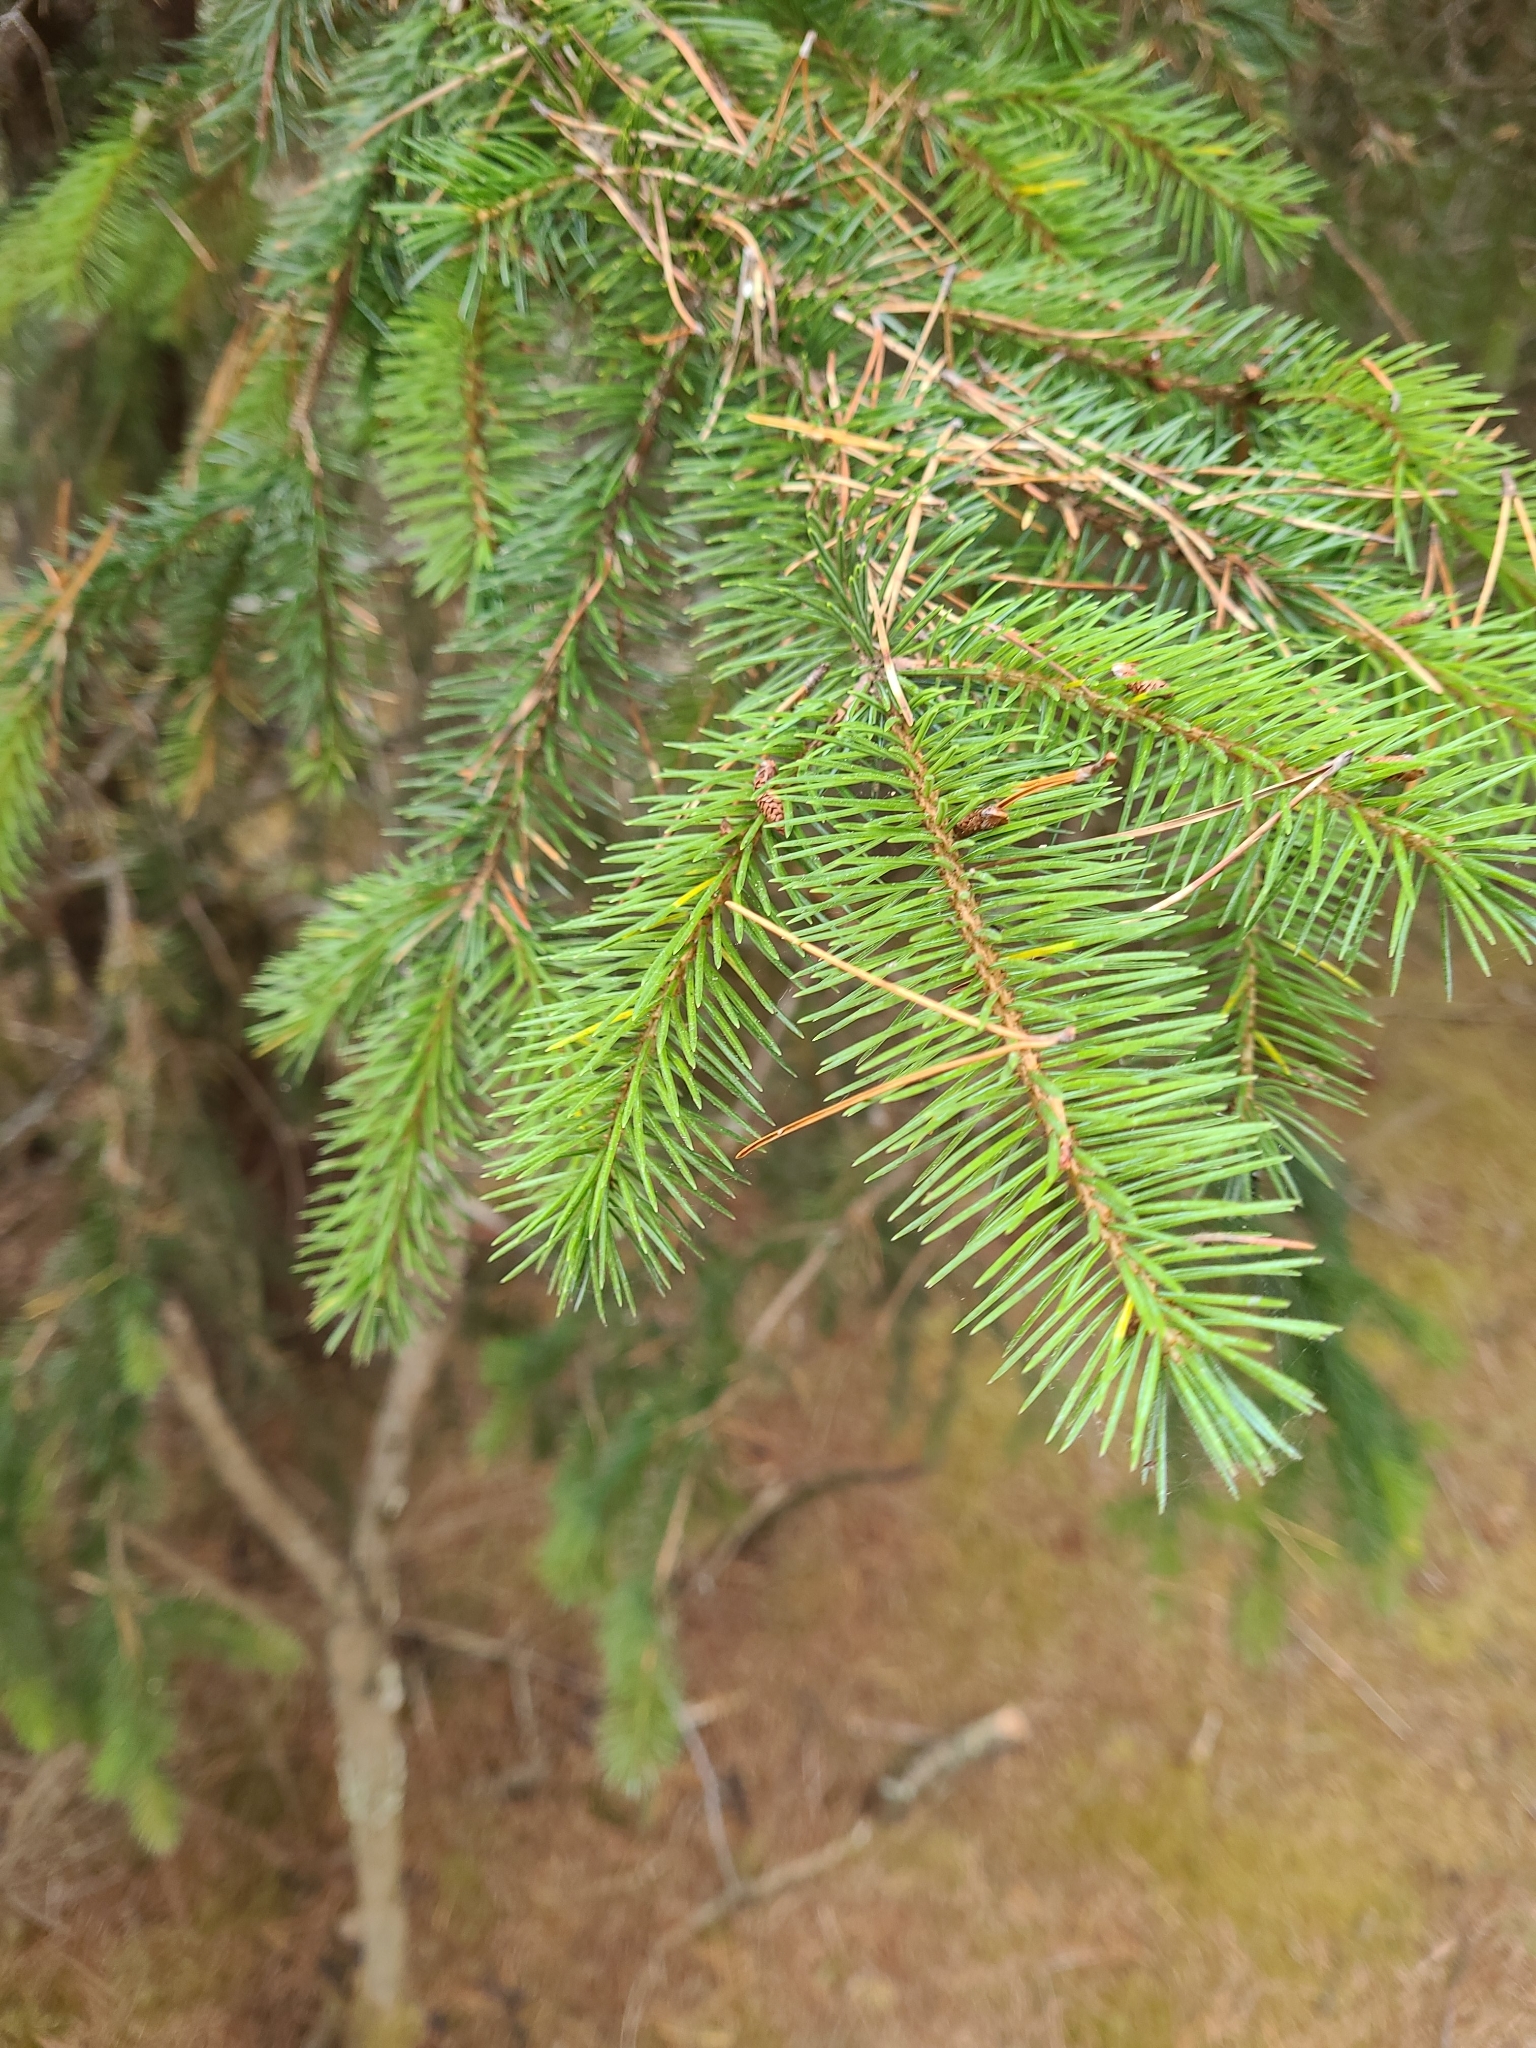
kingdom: Plantae
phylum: Tracheophyta
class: Pinopsida
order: Pinales
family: Pinaceae
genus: Picea
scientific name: Picea sitchensis
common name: Sitka spruce
